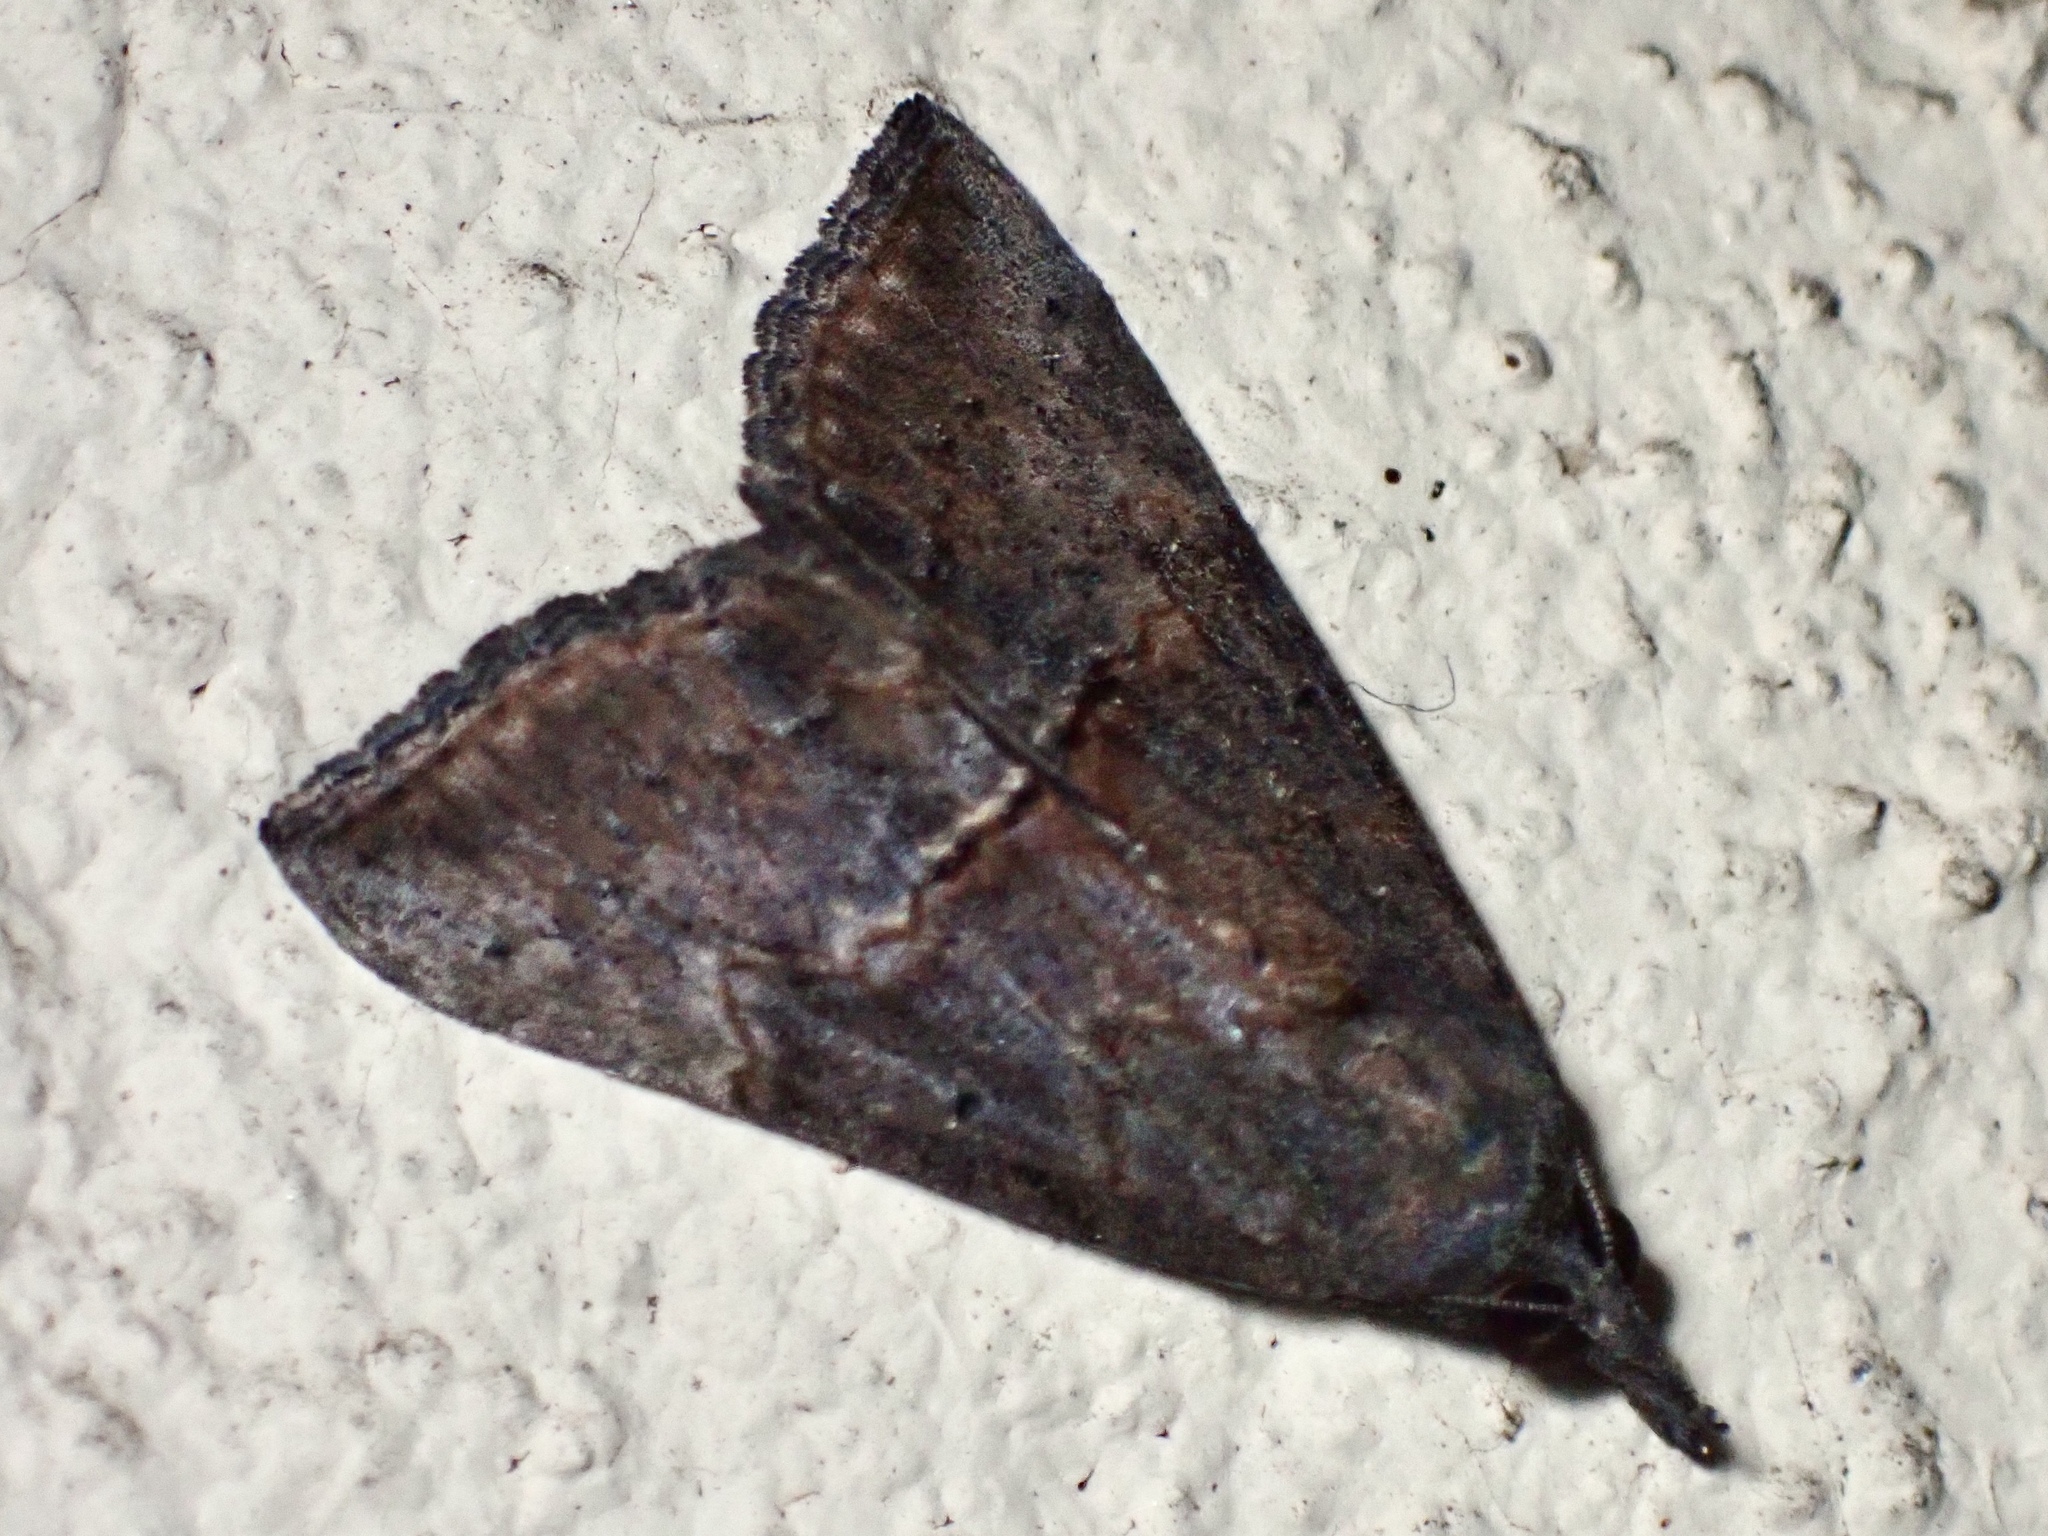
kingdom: Animalia
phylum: Arthropoda
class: Insecta
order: Lepidoptera
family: Erebidae
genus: Hypena
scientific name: Hypena scabra
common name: Green cloverworm
